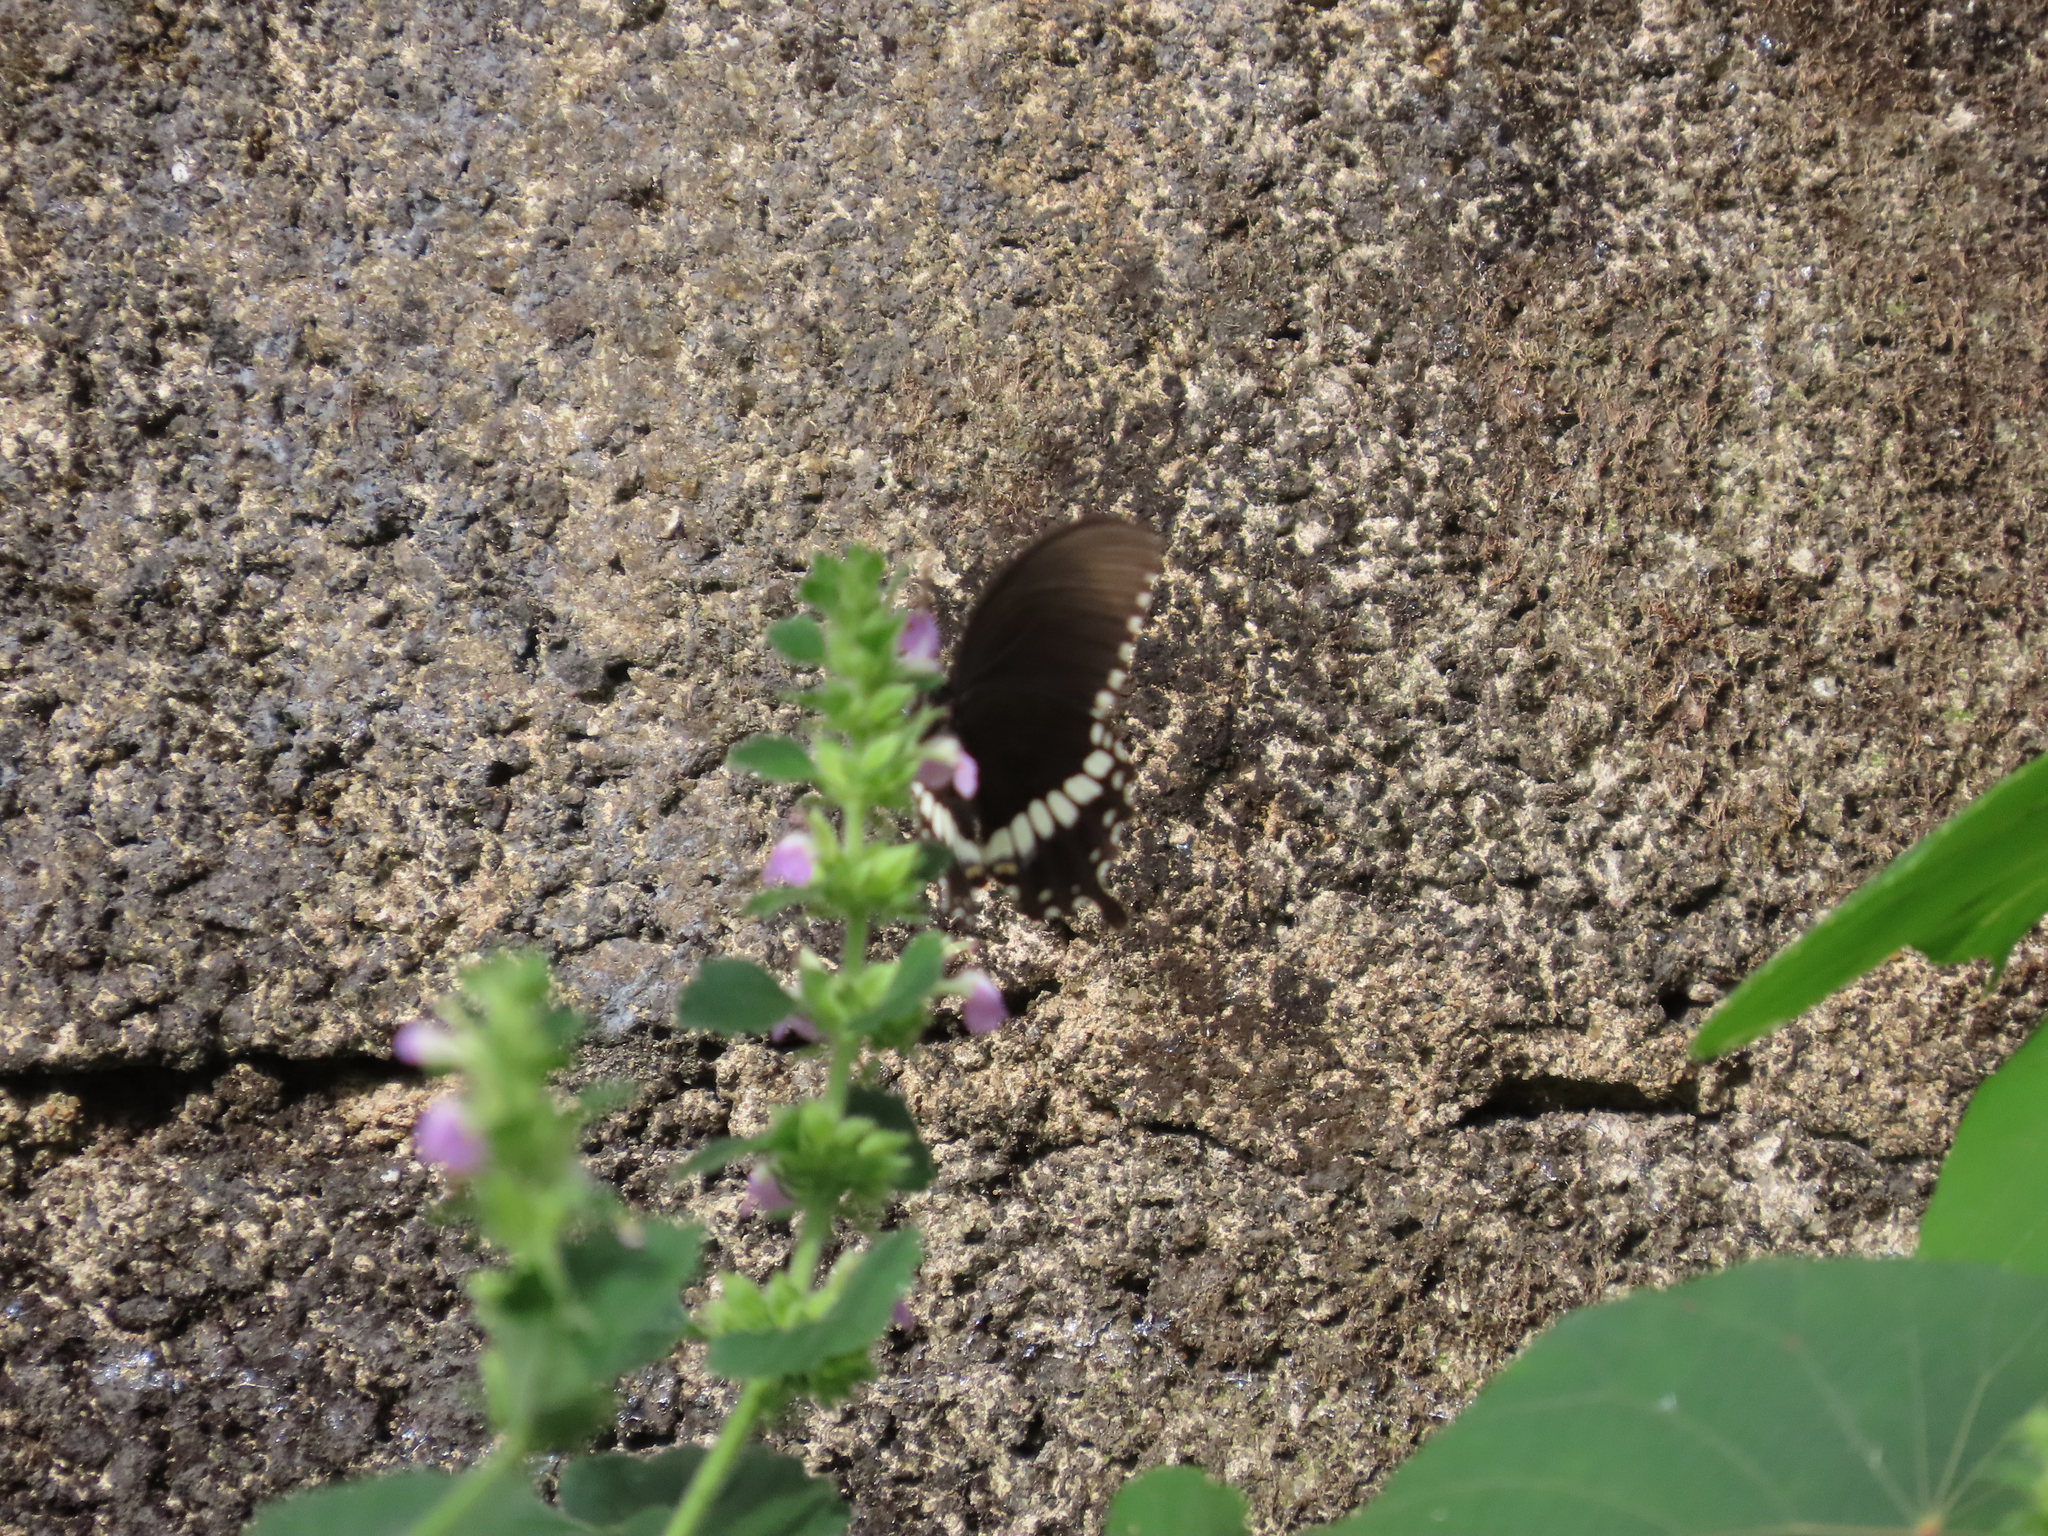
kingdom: Animalia
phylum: Arthropoda
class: Insecta
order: Lepidoptera
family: Papilionidae
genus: Papilio
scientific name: Papilio polytes
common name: Common mormon
